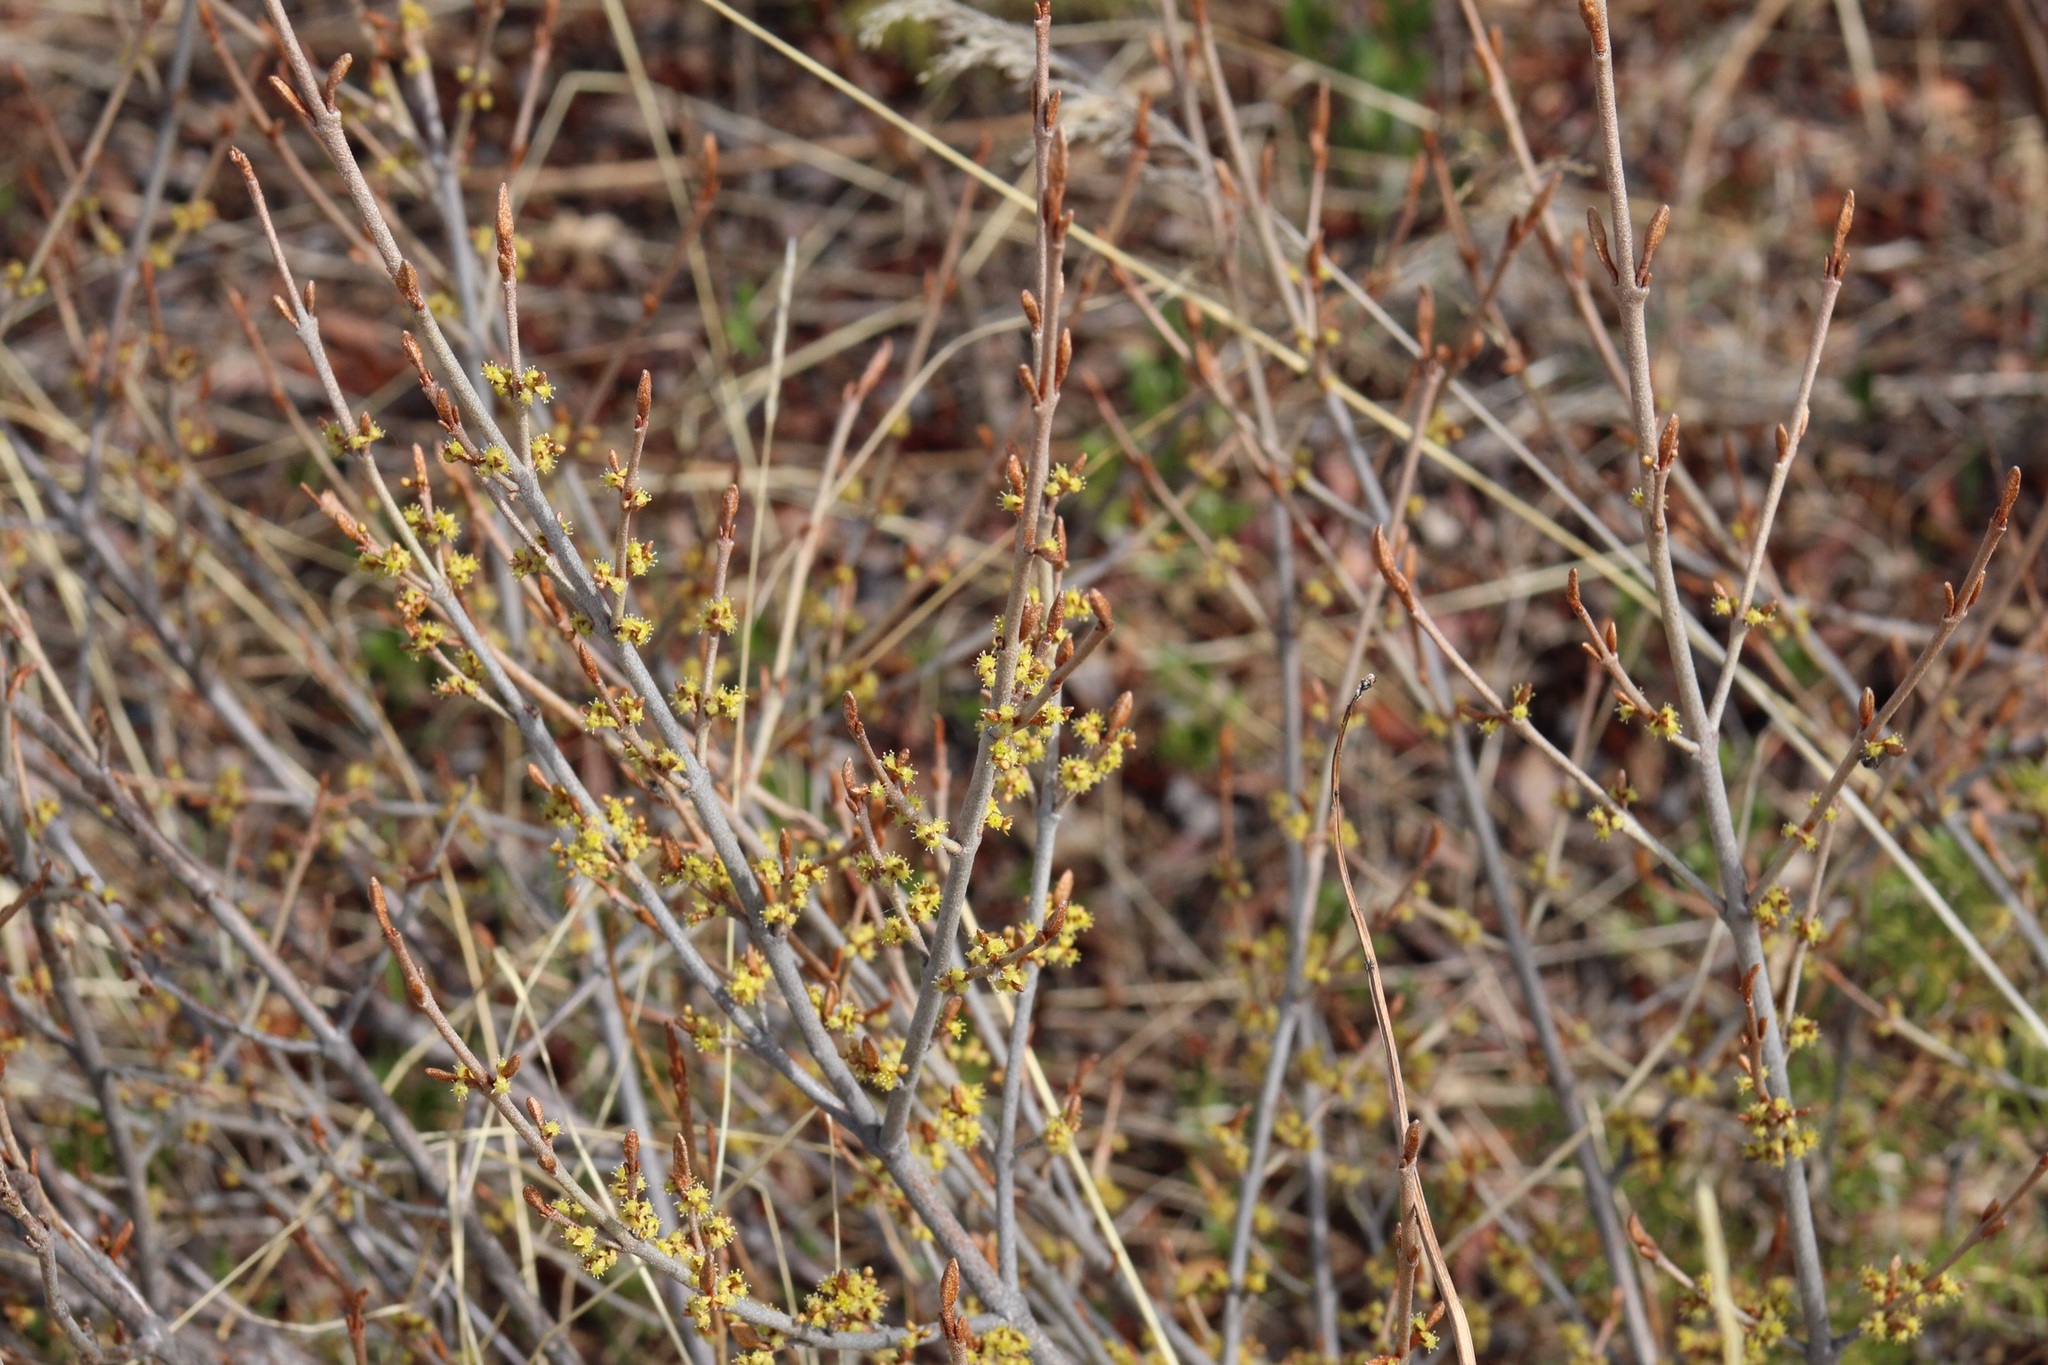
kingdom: Plantae
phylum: Tracheophyta
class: Magnoliopsida
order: Rosales
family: Elaeagnaceae
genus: Shepherdia
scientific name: Shepherdia canadensis
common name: Soapberry
